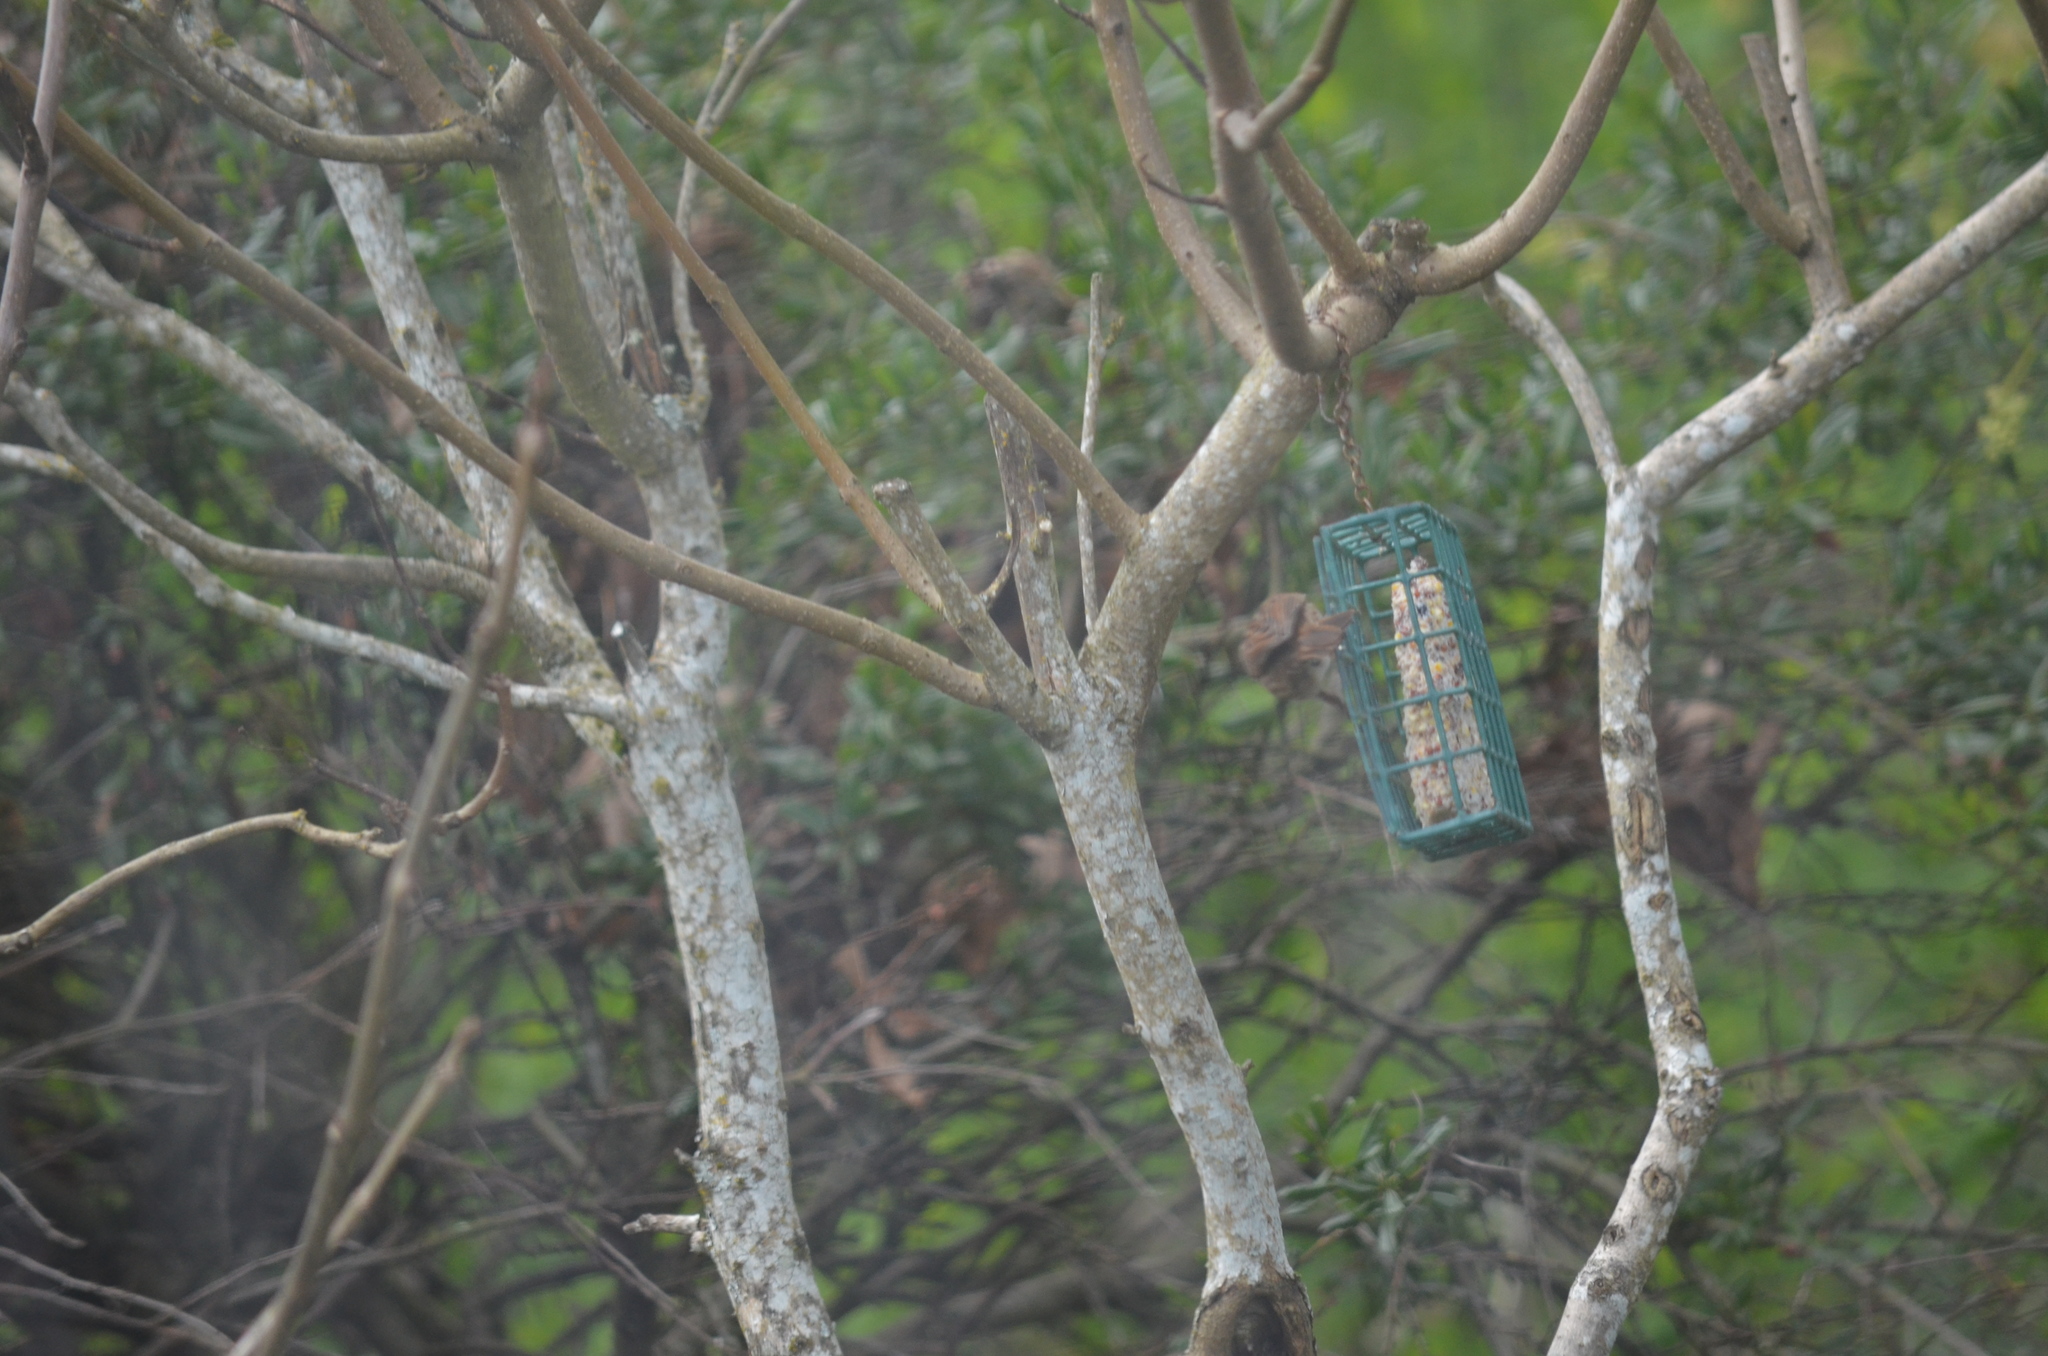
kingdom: Animalia
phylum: Chordata
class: Aves
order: Passeriformes
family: Passerellidae
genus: Melospiza
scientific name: Melospiza melodia
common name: Song sparrow
